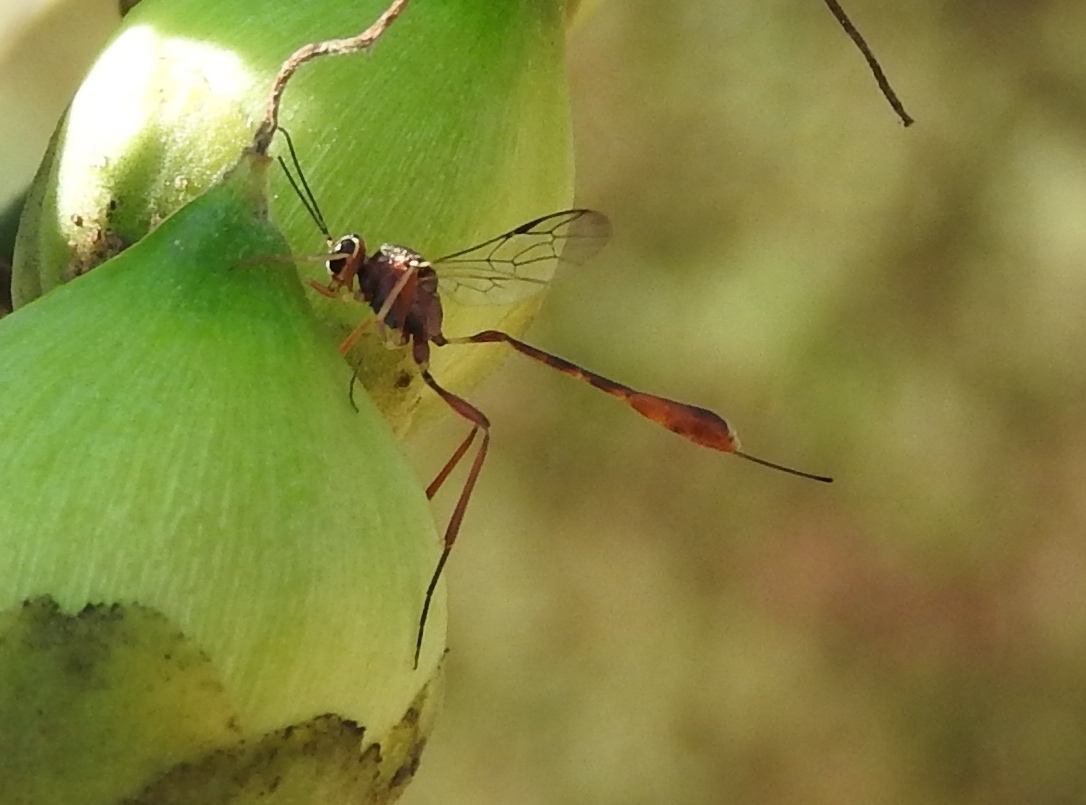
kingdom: Animalia
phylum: Arthropoda
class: Insecta
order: Hymenoptera
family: Ichneumonidae
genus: Anomalon
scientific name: Anomalon
